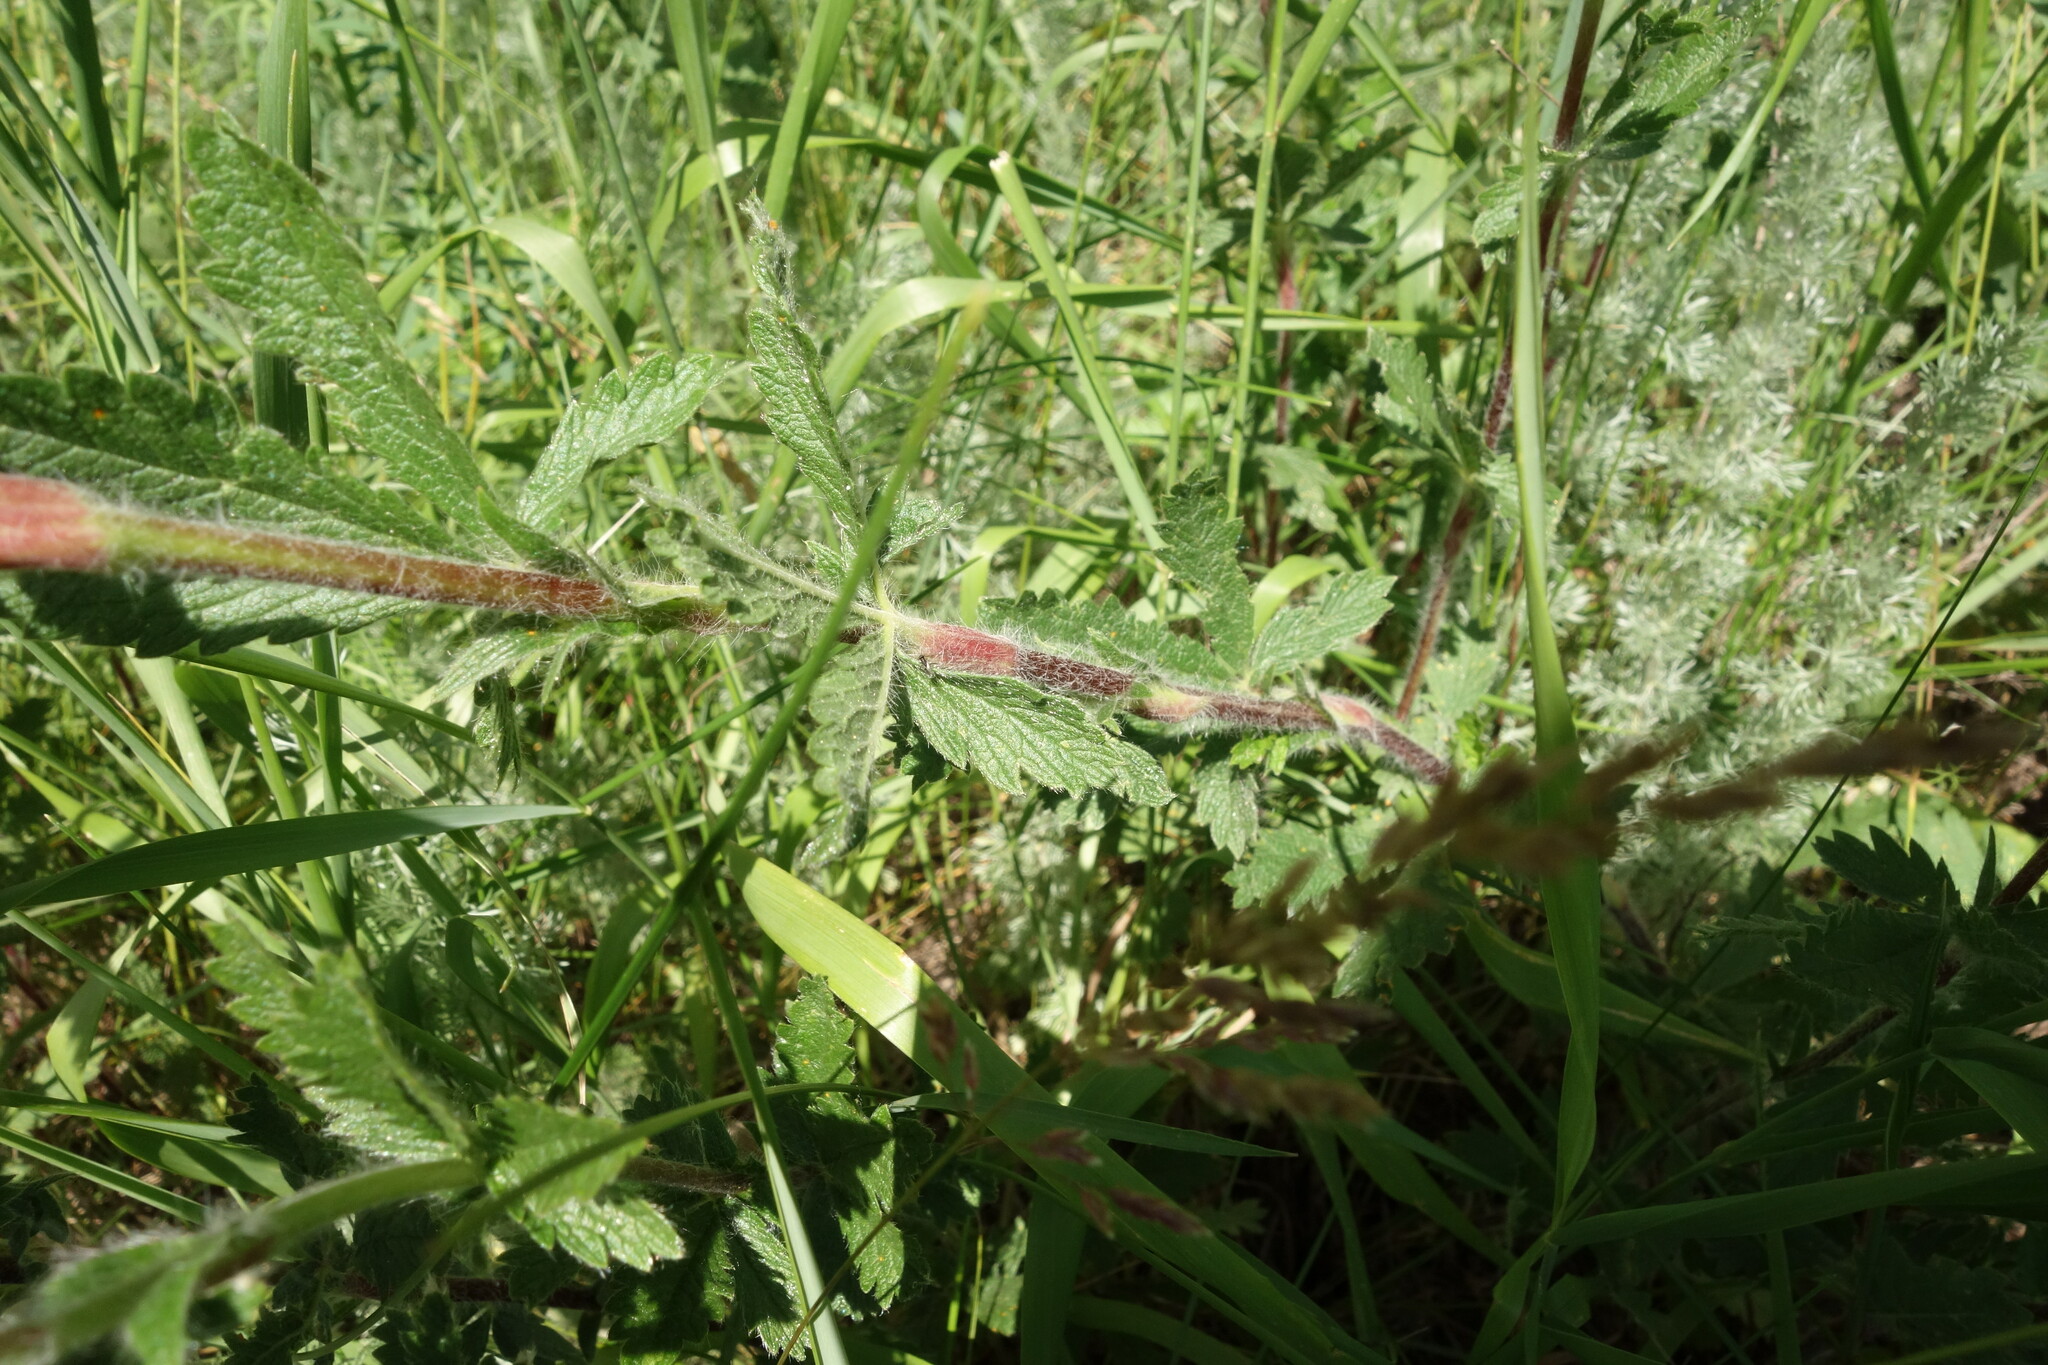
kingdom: Plantae
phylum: Tracheophyta
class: Magnoliopsida
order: Rosales
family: Rosaceae
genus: Potentilla
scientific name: Potentilla recta
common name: Sulphur cinquefoil
